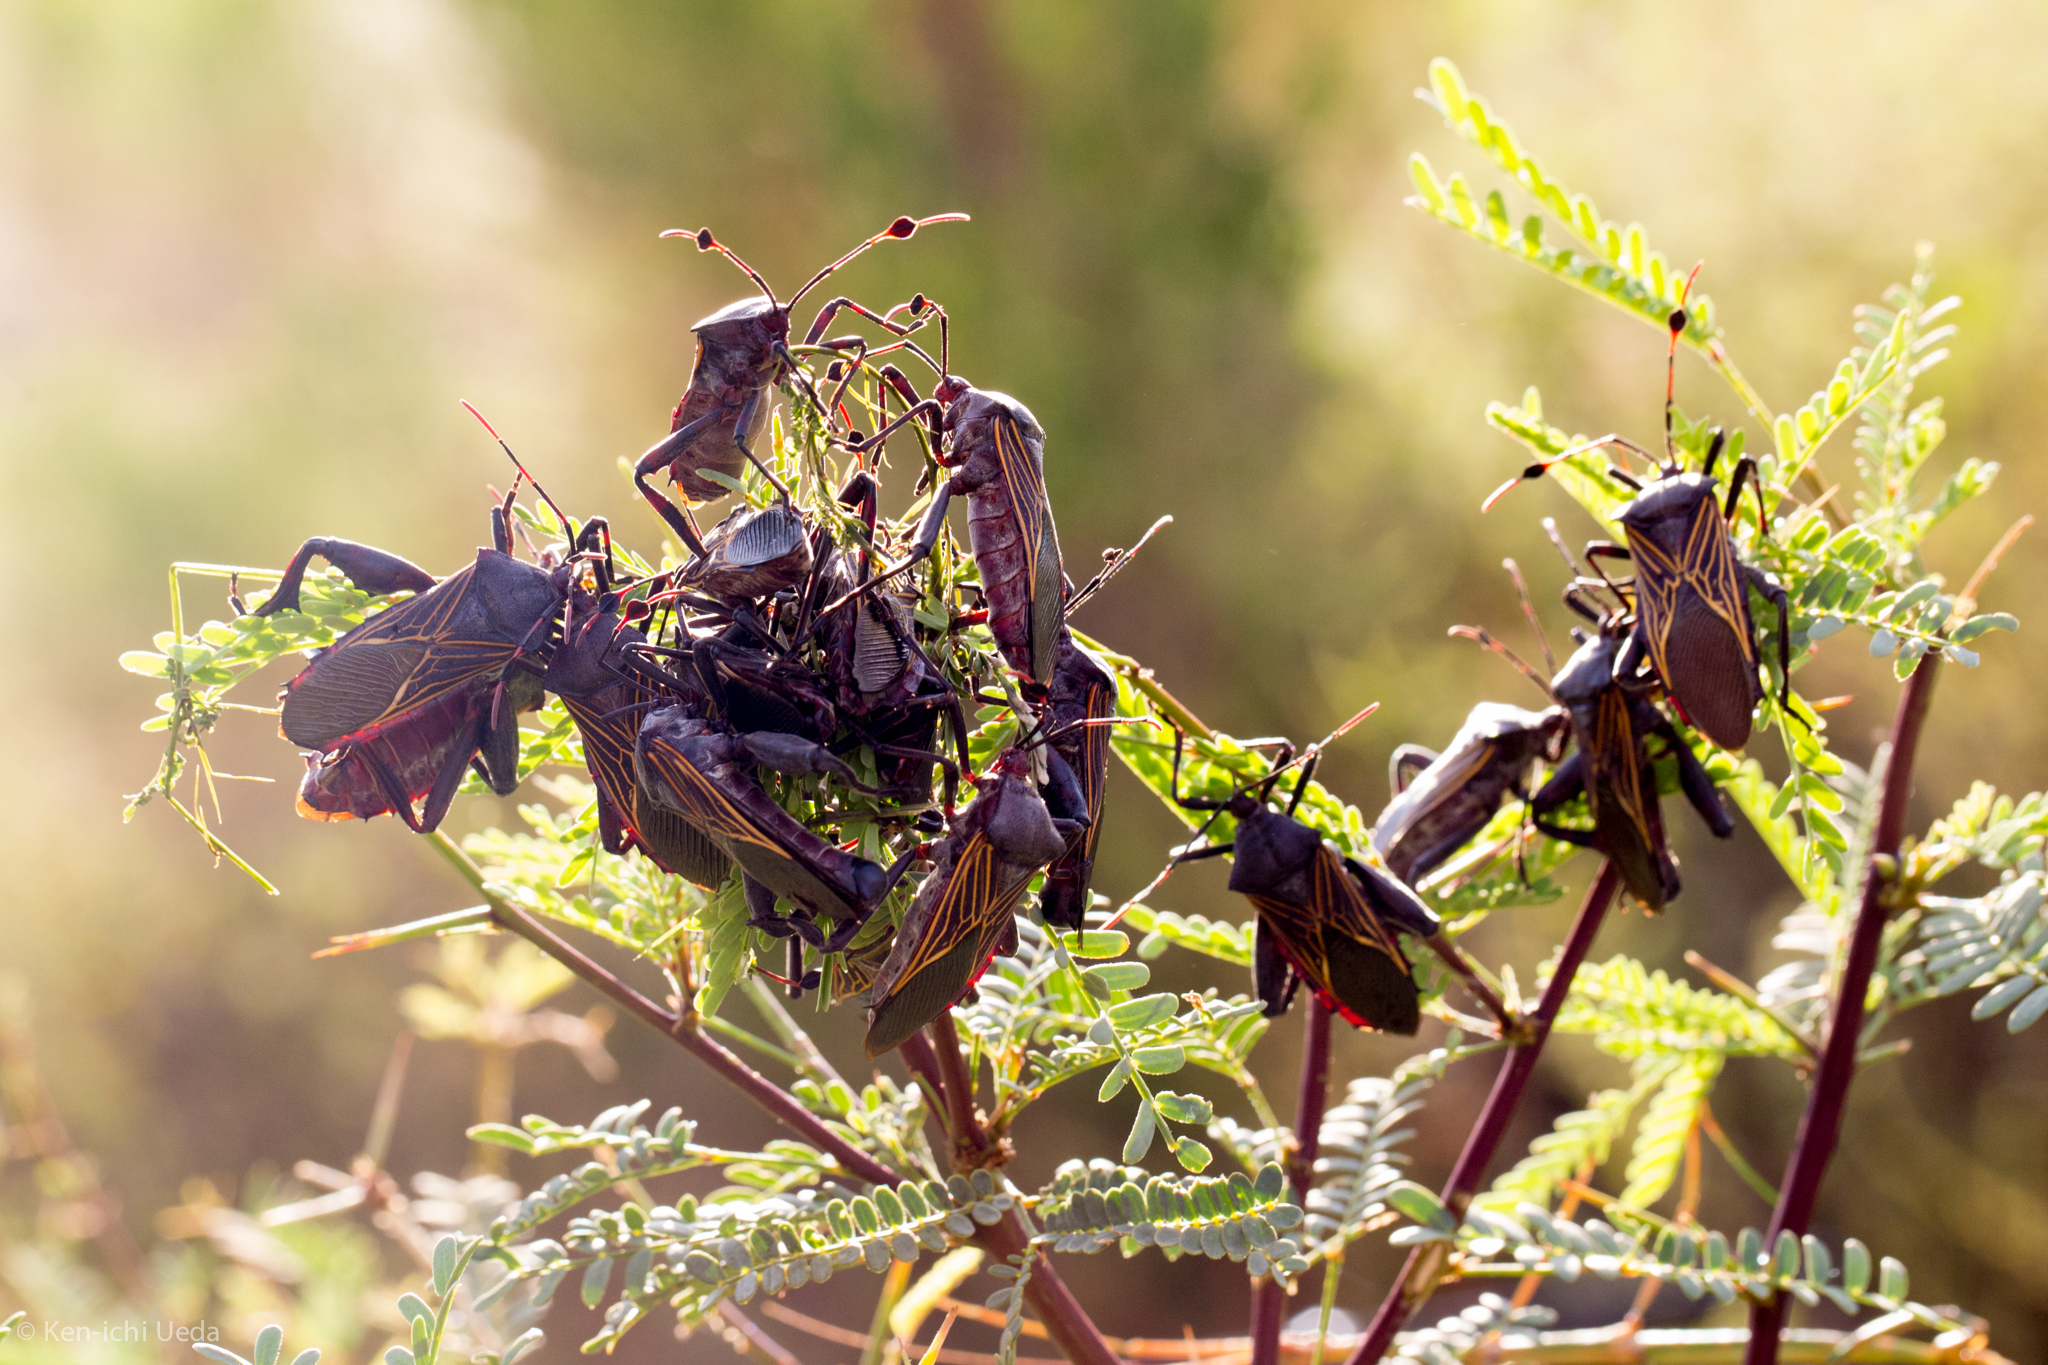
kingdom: Animalia
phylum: Arthropoda
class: Insecta
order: Hemiptera
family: Coreidae
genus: Thasus
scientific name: Thasus neocalifornicus
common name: Giant mesquite bug
